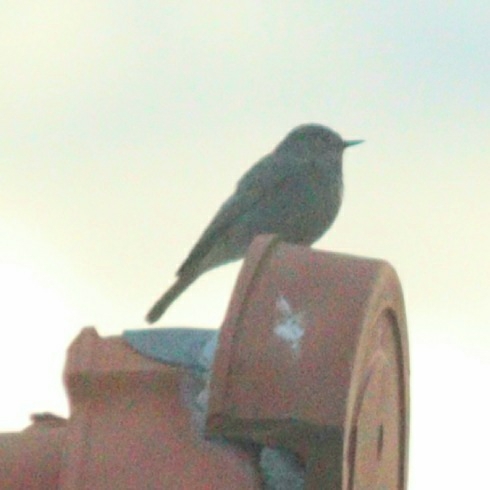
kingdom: Animalia
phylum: Chordata
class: Aves
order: Passeriformes
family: Muscicapidae
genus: Phoenicurus
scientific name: Phoenicurus ochruros
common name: Black redstart
